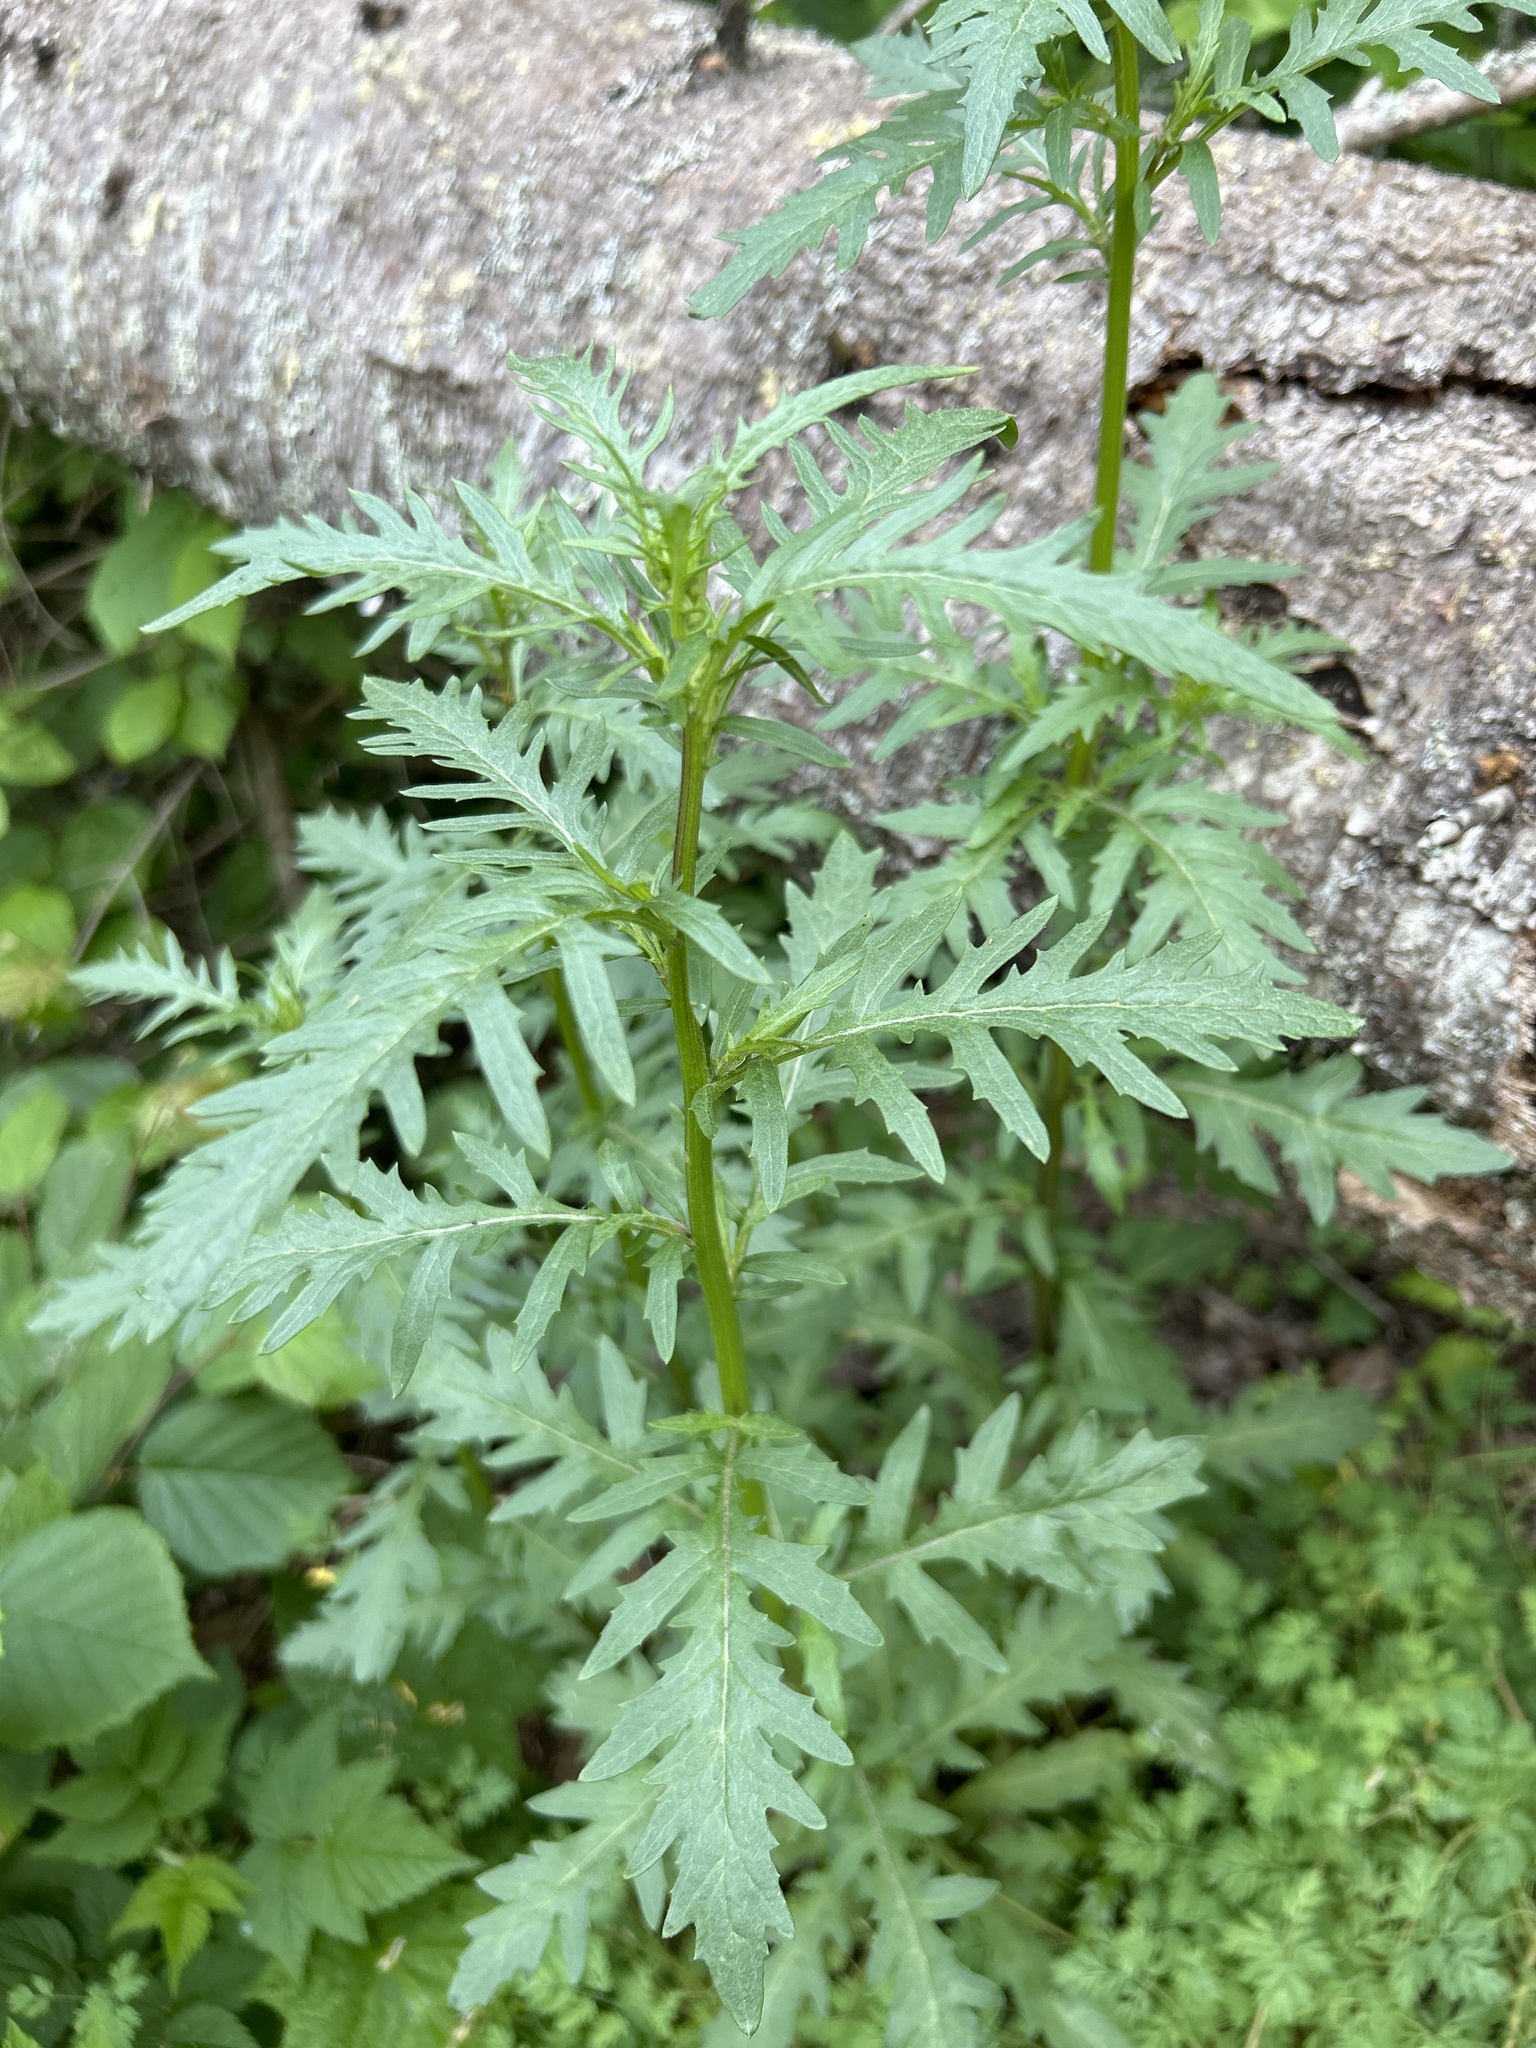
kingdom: Plantae
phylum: Tracheophyta
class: Magnoliopsida
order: Asterales
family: Asteraceae
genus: Senecio
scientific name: Senecio eremophilus
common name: Desert ragwort
